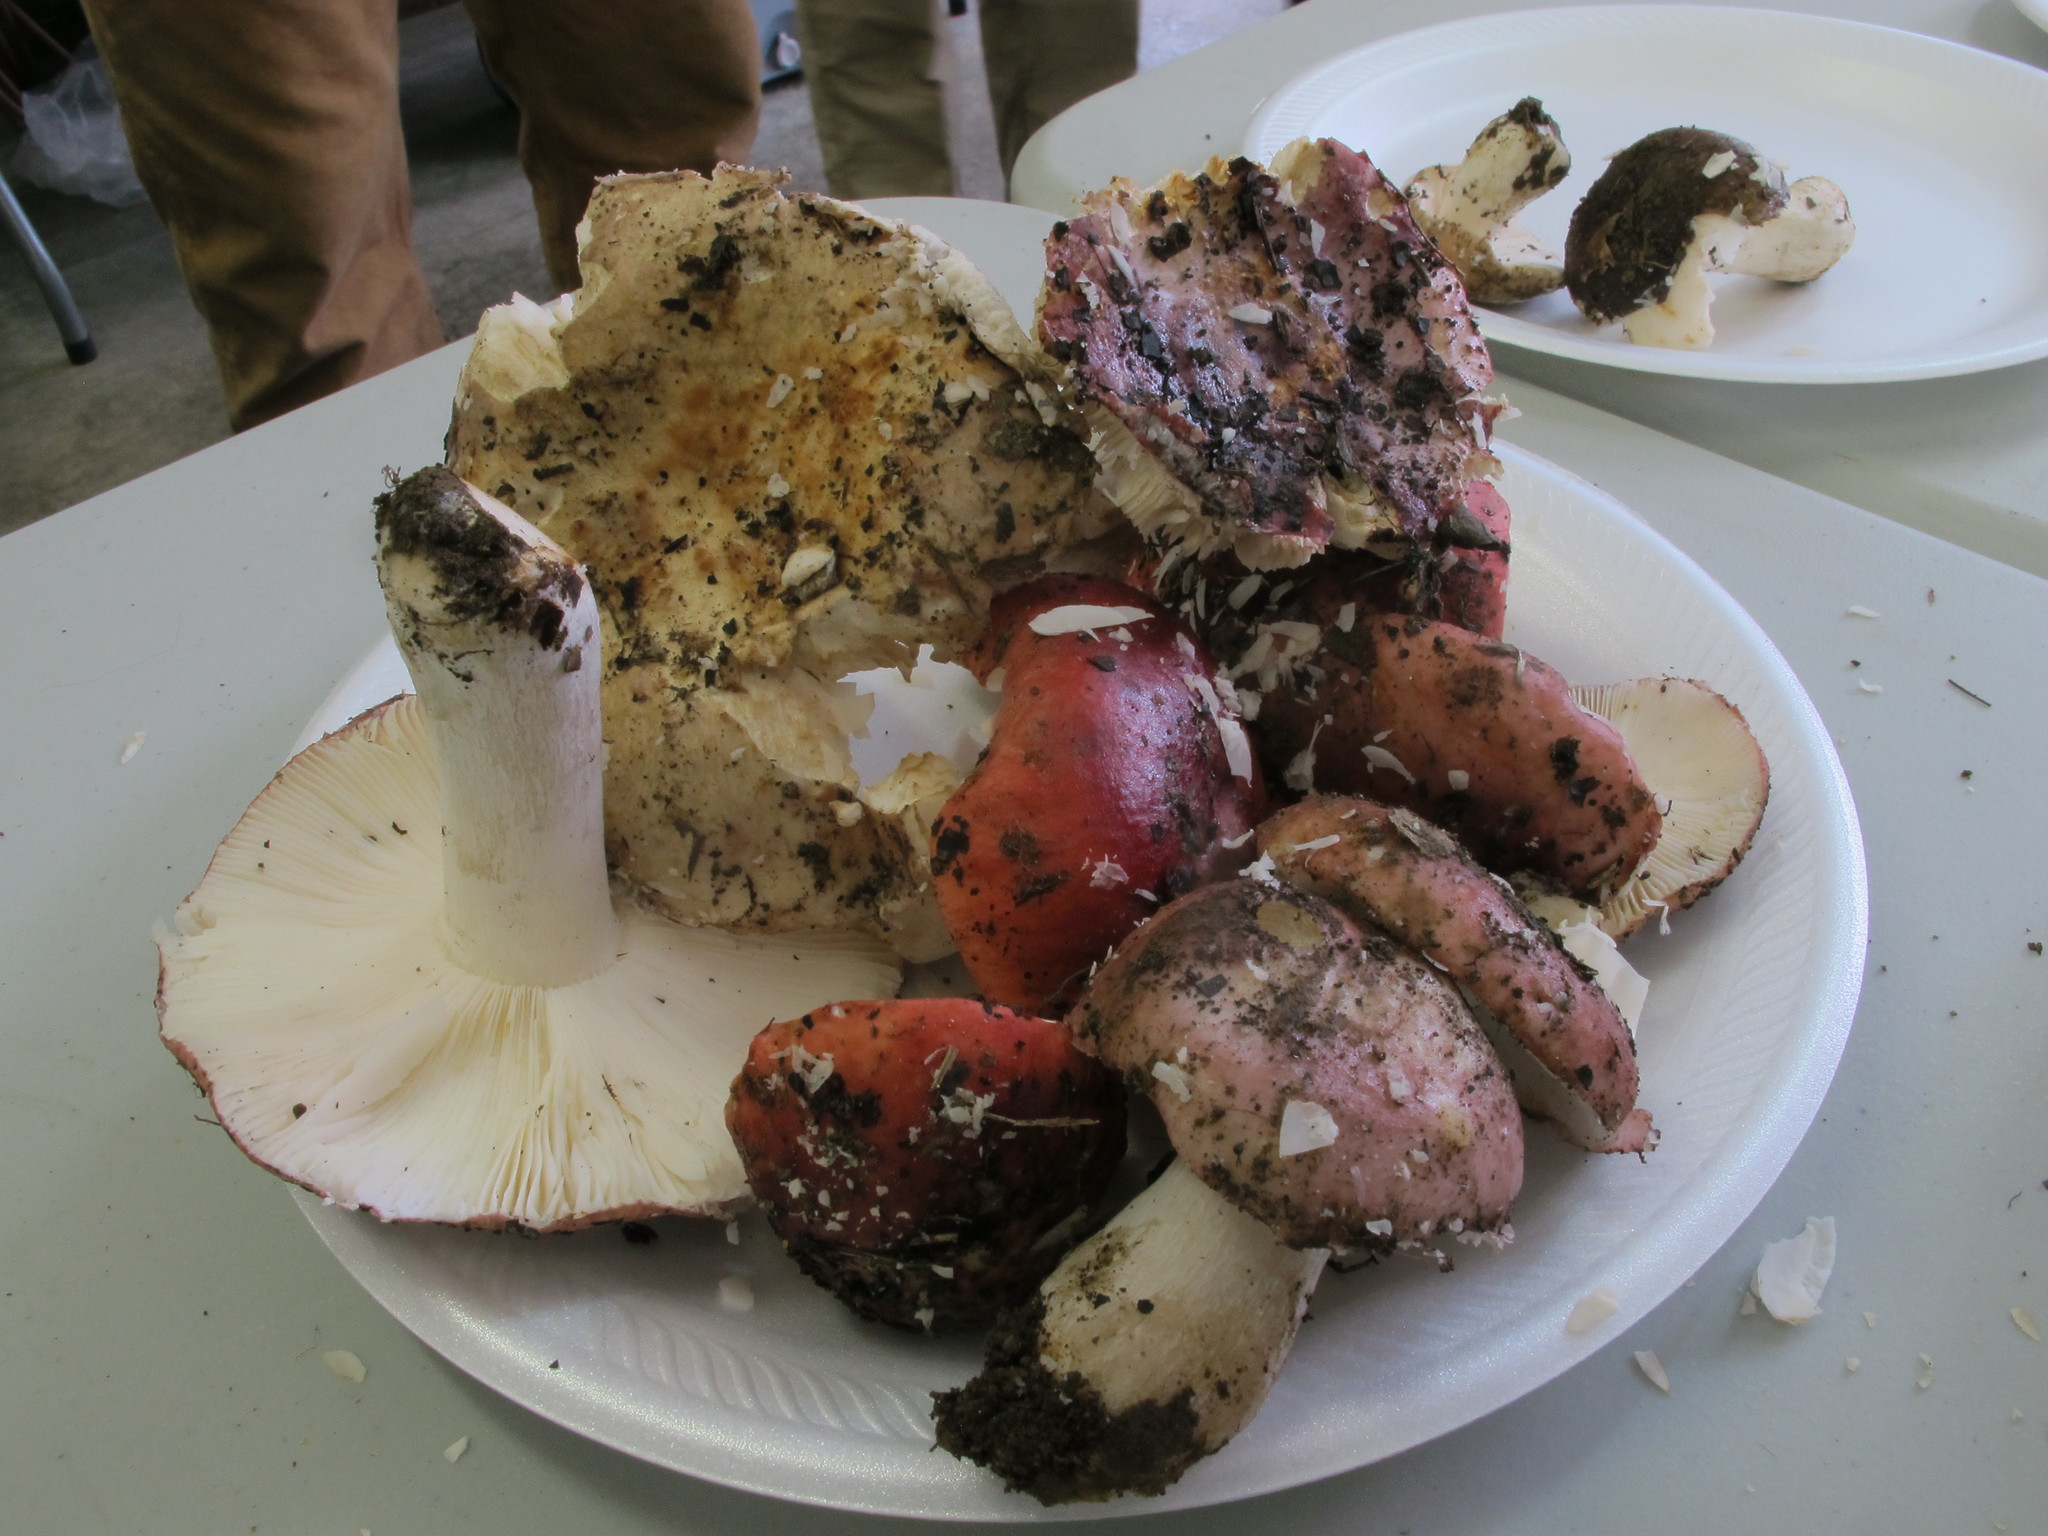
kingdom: Fungi
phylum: Basidiomycota
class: Agaricomycetes
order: Russulales
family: Russulaceae
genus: Russula
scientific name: Russula vinacea
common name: Blackish-red russula
